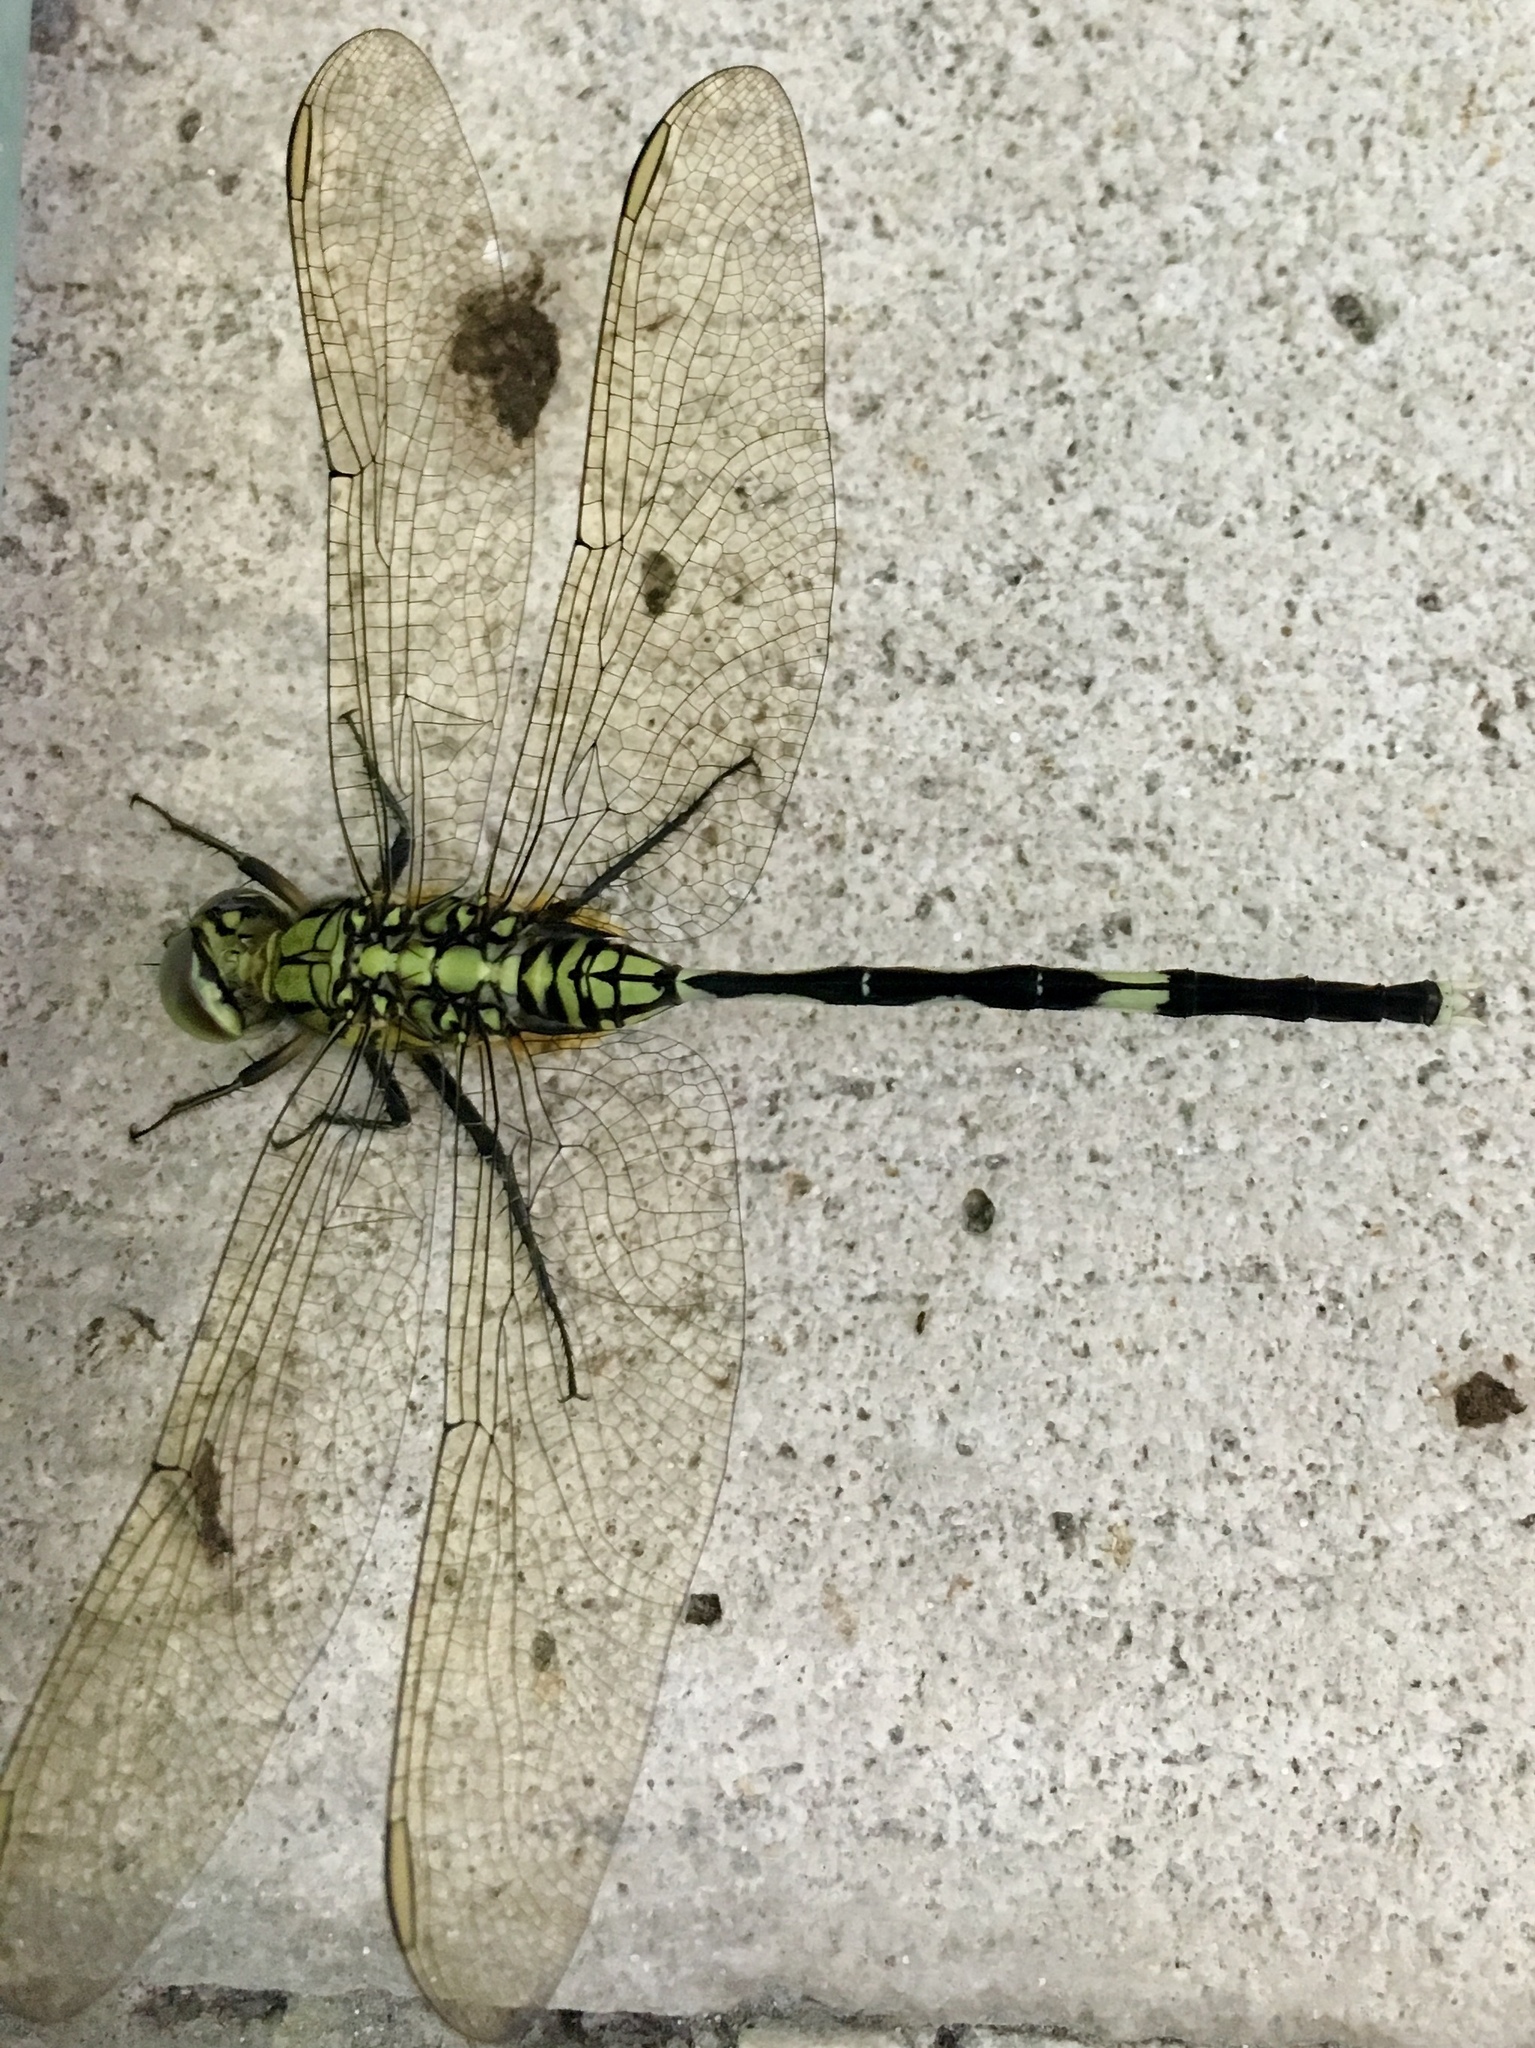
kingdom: Animalia
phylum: Arthropoda
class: Insecta
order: Odonata
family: Libellulidae
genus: Orthetrum
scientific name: Orthetrum sabina
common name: Slender skimmer
